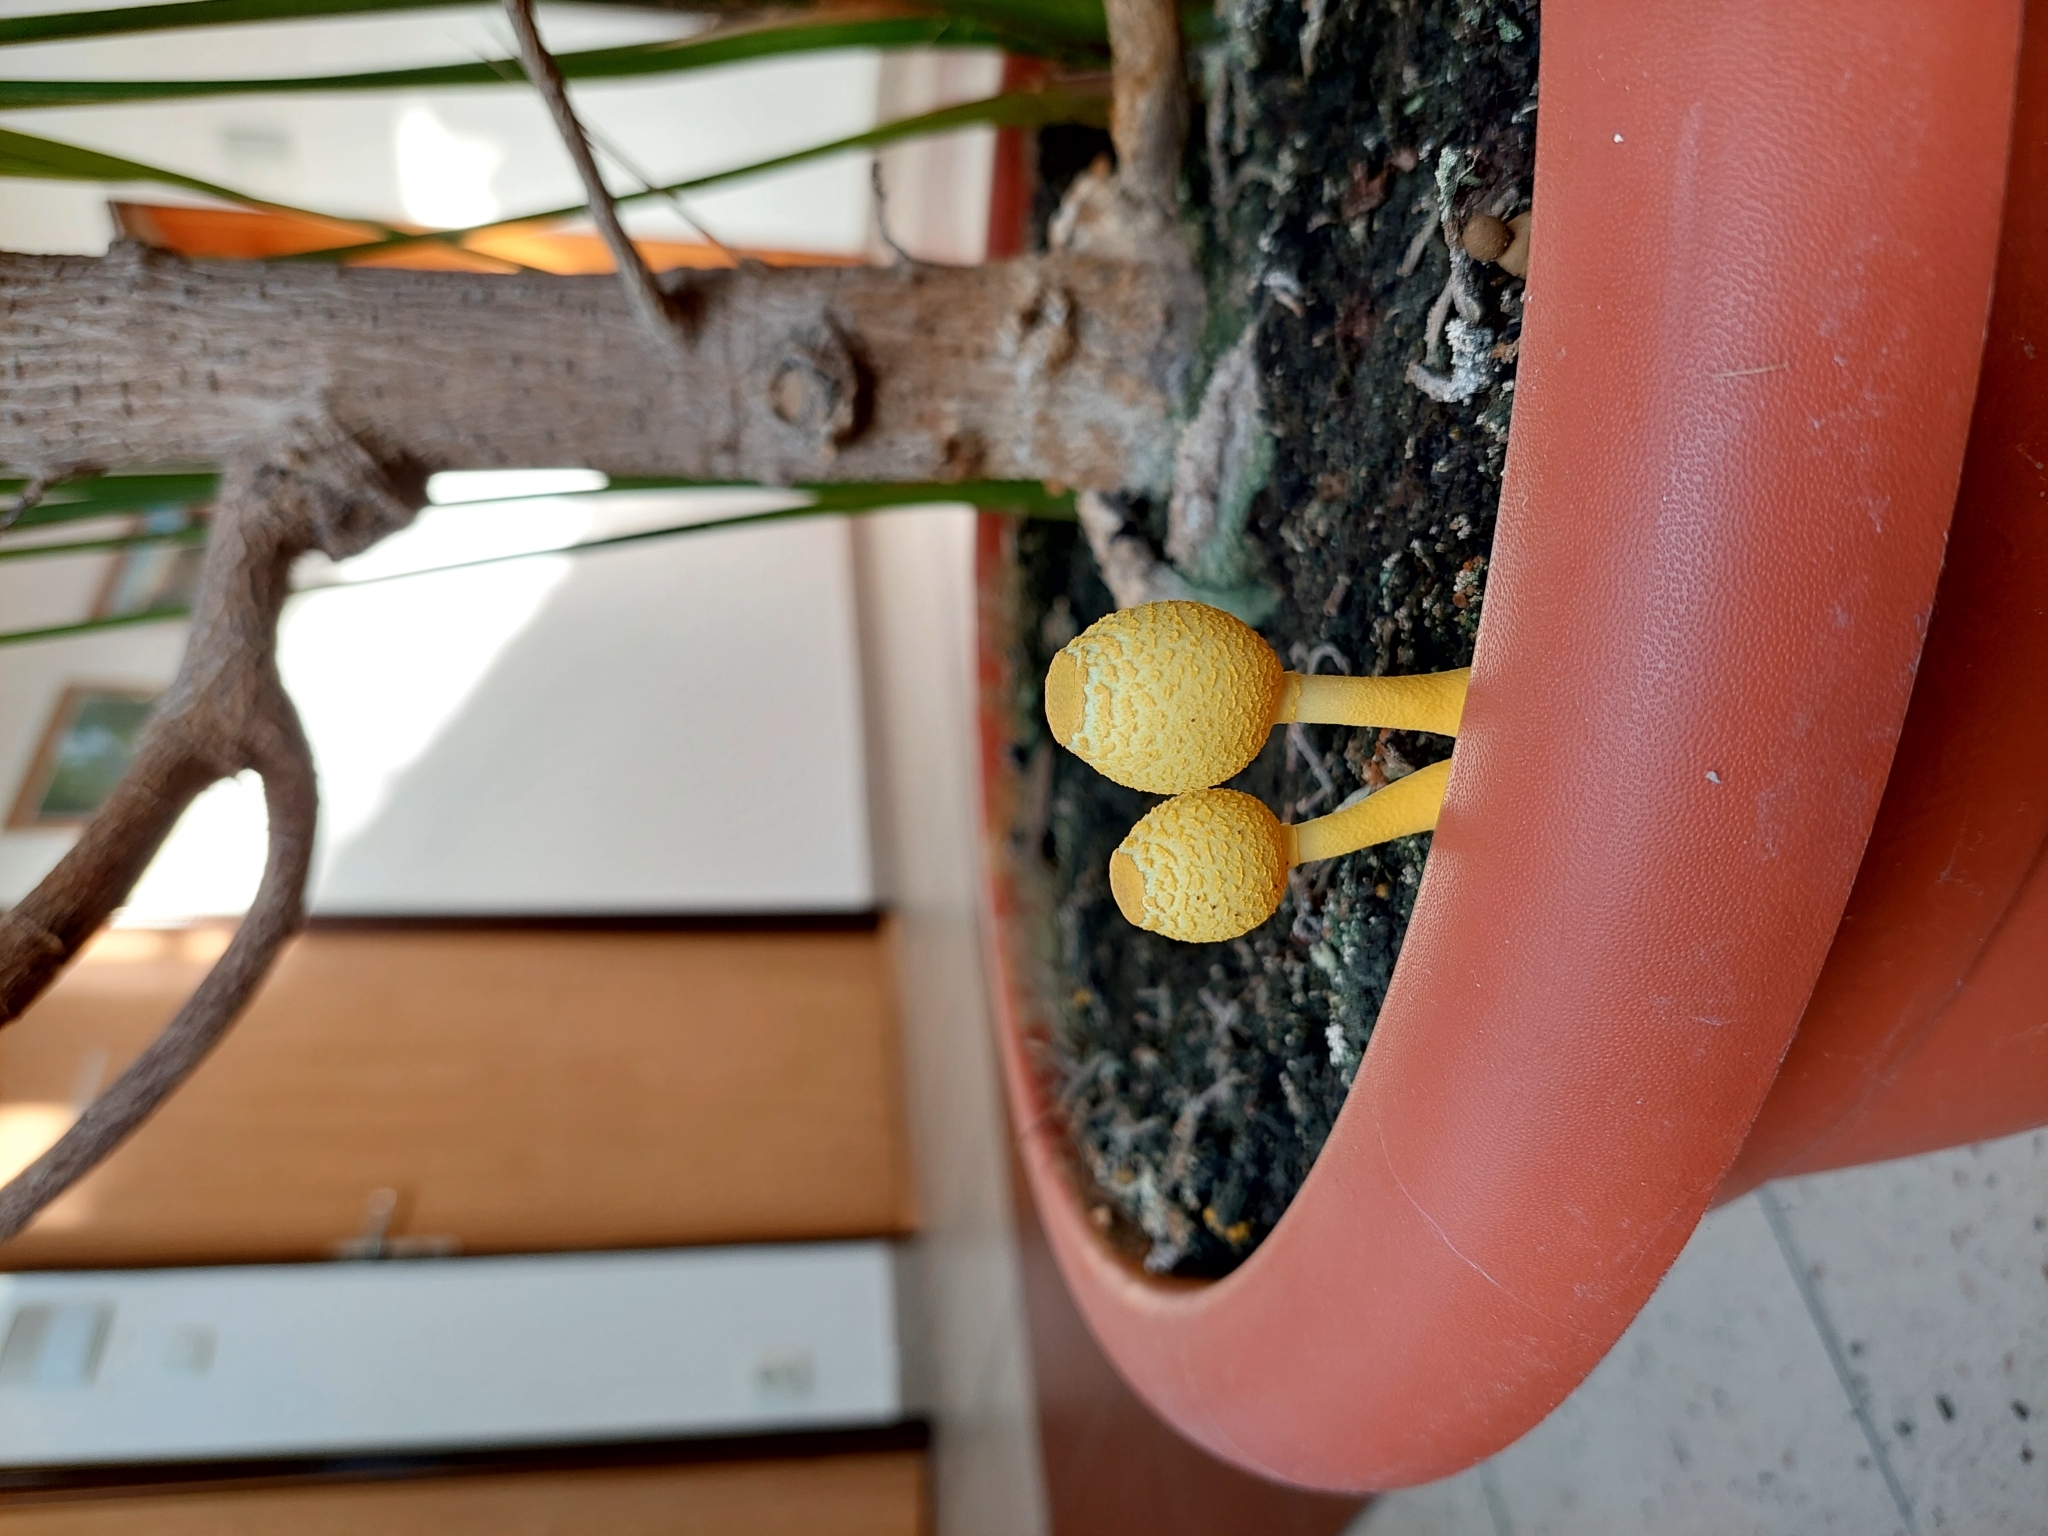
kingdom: Fungi
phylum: Basidiomycota
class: Agaricomycetes
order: Agaricales
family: Agaricaceae
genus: Leucocoprinus
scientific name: Leucocoprinus birnbaumii
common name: Plantpot dapperling
